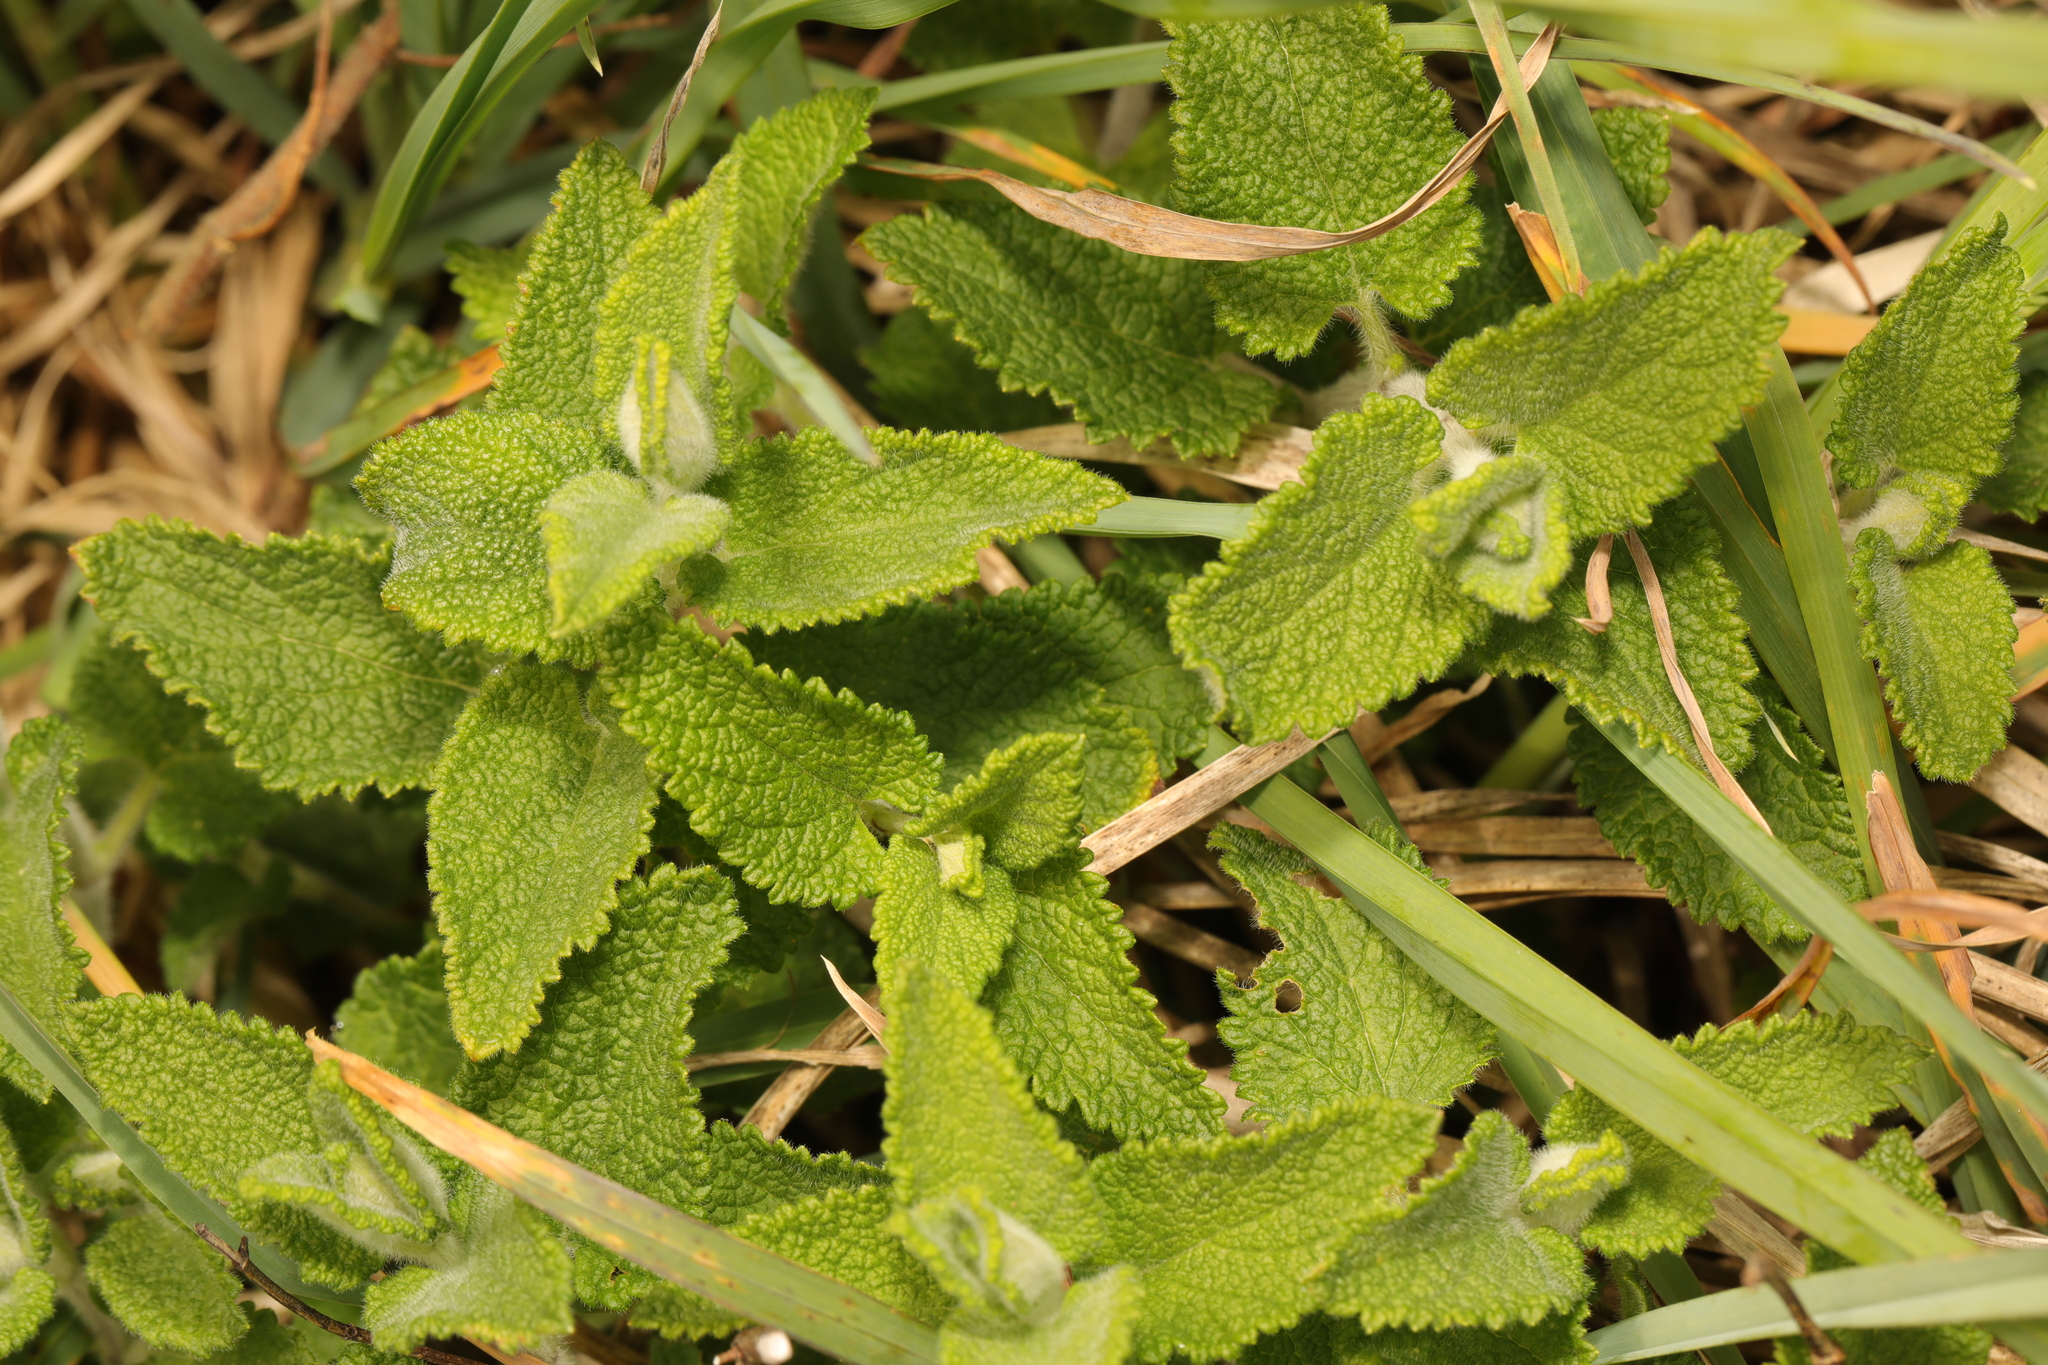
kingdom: Plantae
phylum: Tracheophyta
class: Magnoliopsida
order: Lamiales
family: Lamiaceae
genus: Teucrium
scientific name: Teucrium scorodonia
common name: Woodland germander
